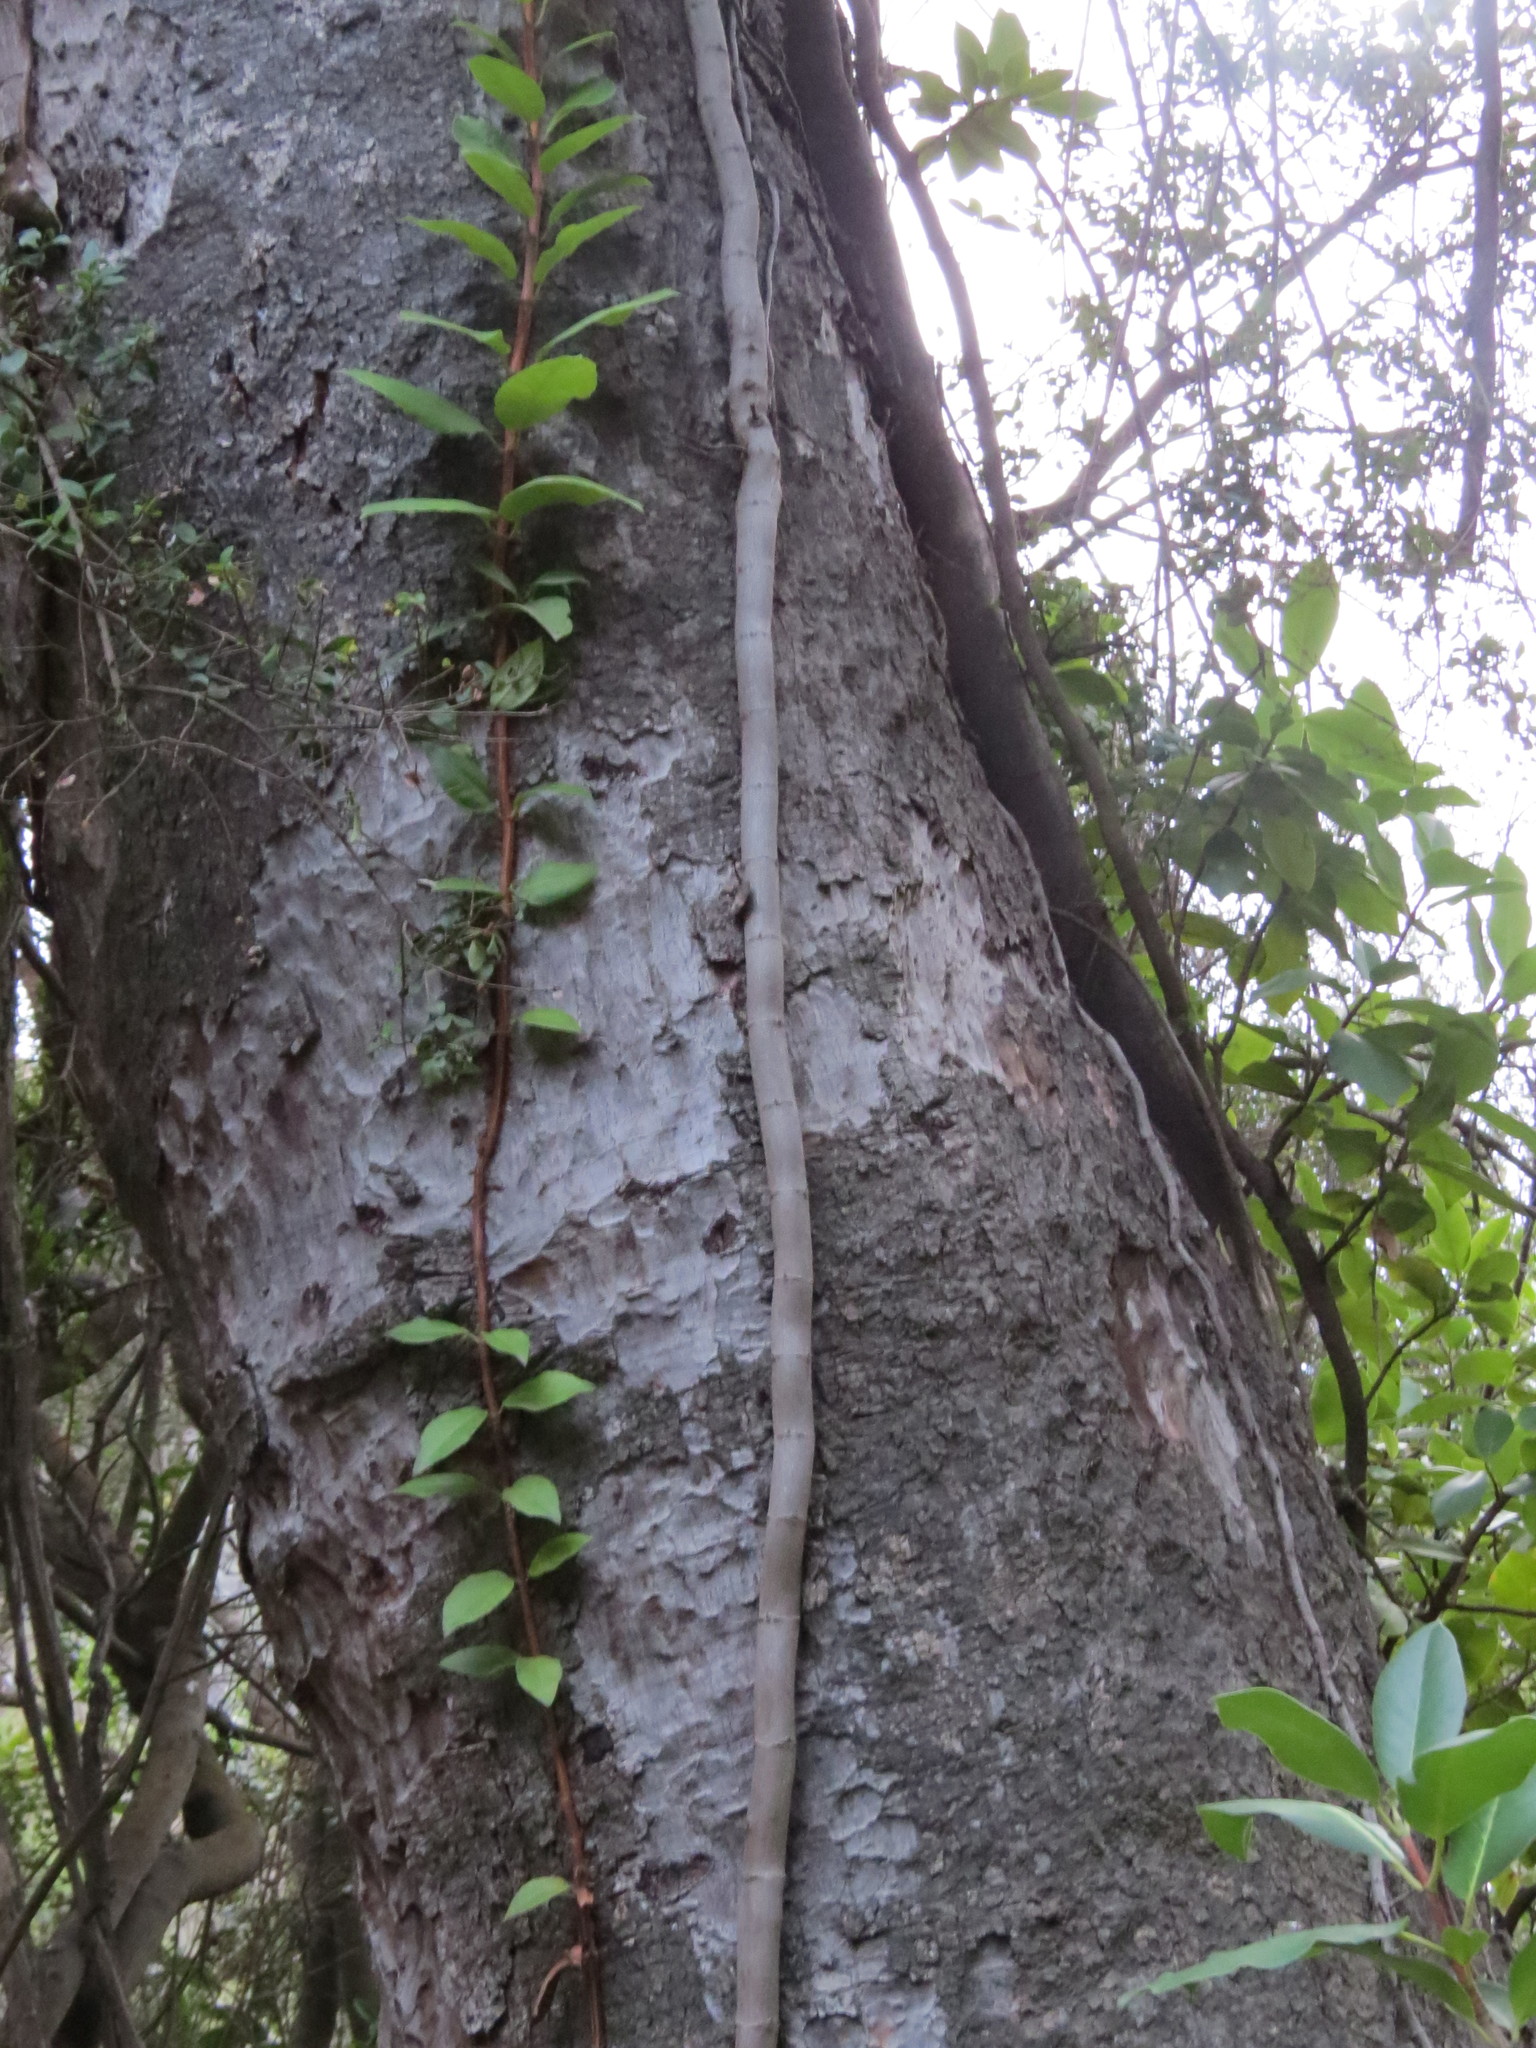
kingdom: Plantae
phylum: Tracheophyta
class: Magnoliopsida
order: Cornales
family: Hydrangeaceae
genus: Hydrangea
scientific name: Hydrangea serratifolia
